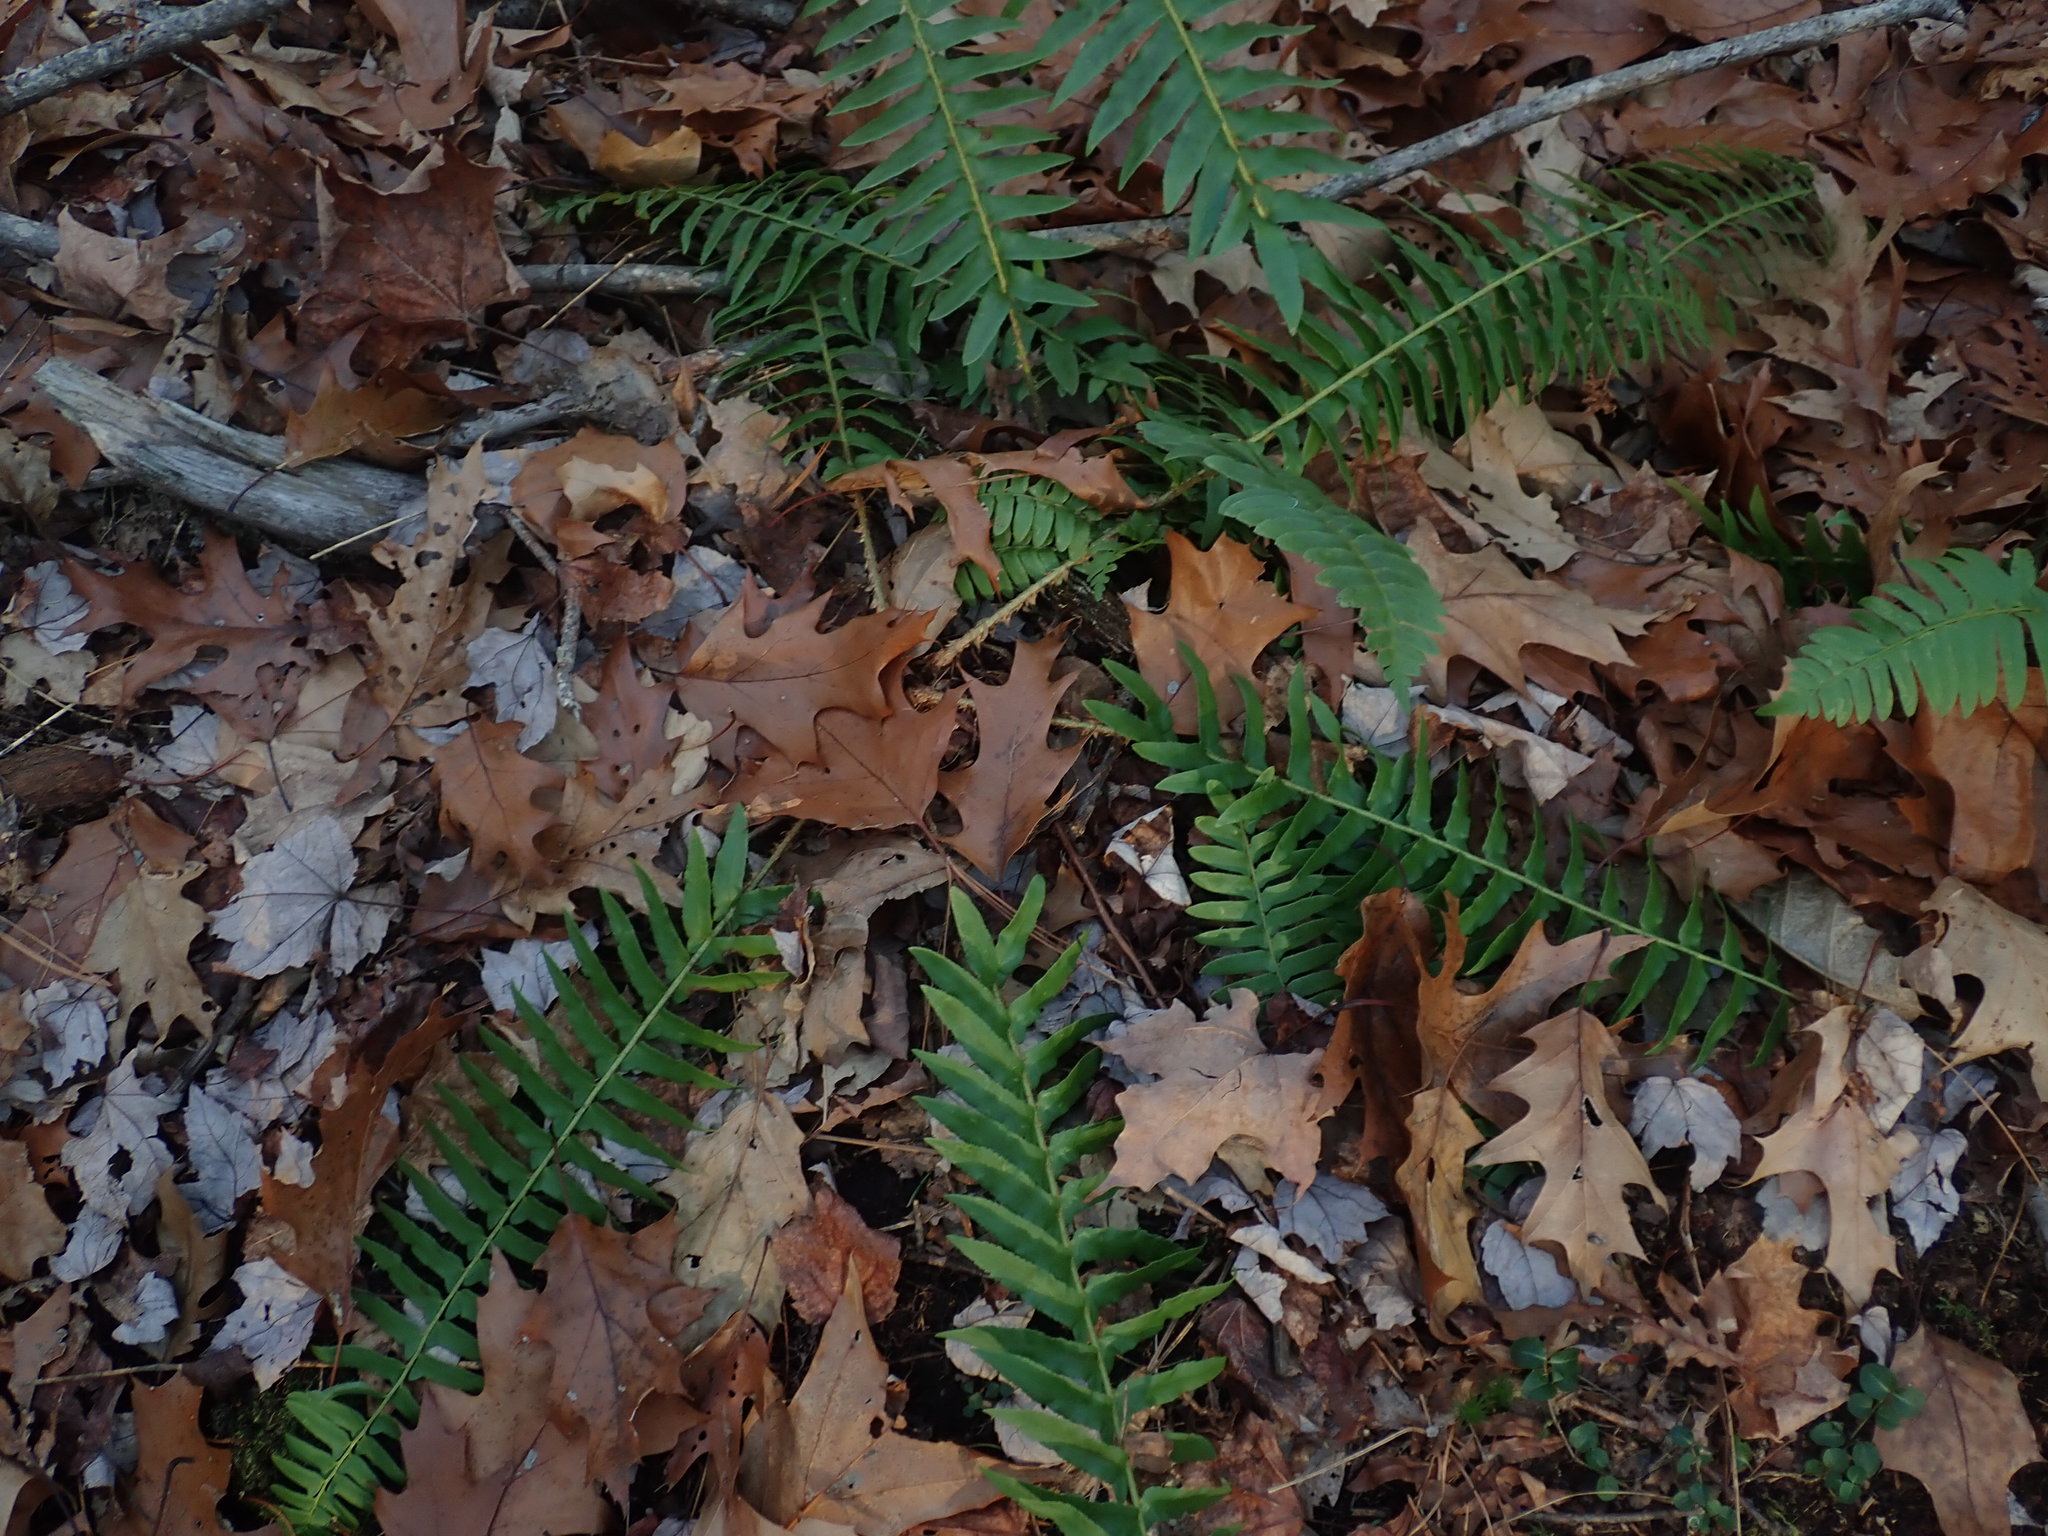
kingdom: Plantae
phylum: Tracheophyta
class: Polypodiopsida
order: Polypodiales
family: Dryopteridaceae
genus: Polystichum
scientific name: Polystichum acrostichoides
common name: Christmas fern
